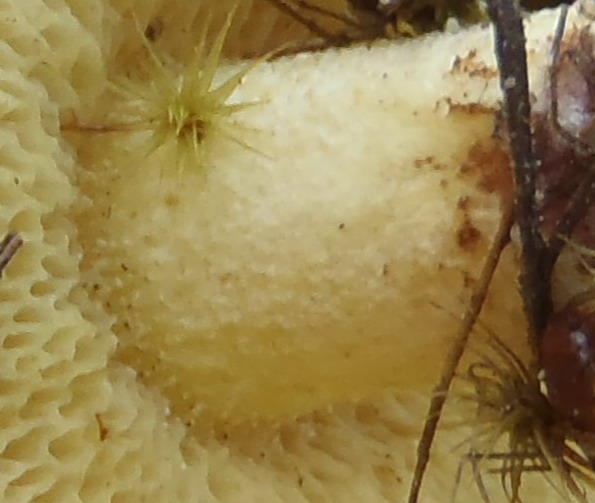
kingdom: Fungi
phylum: Basidiomycota
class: Agaricomycetes
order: Boletales
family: Suillaceae
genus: Suillus
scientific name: Suillus granulatus
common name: Weeping bolete
